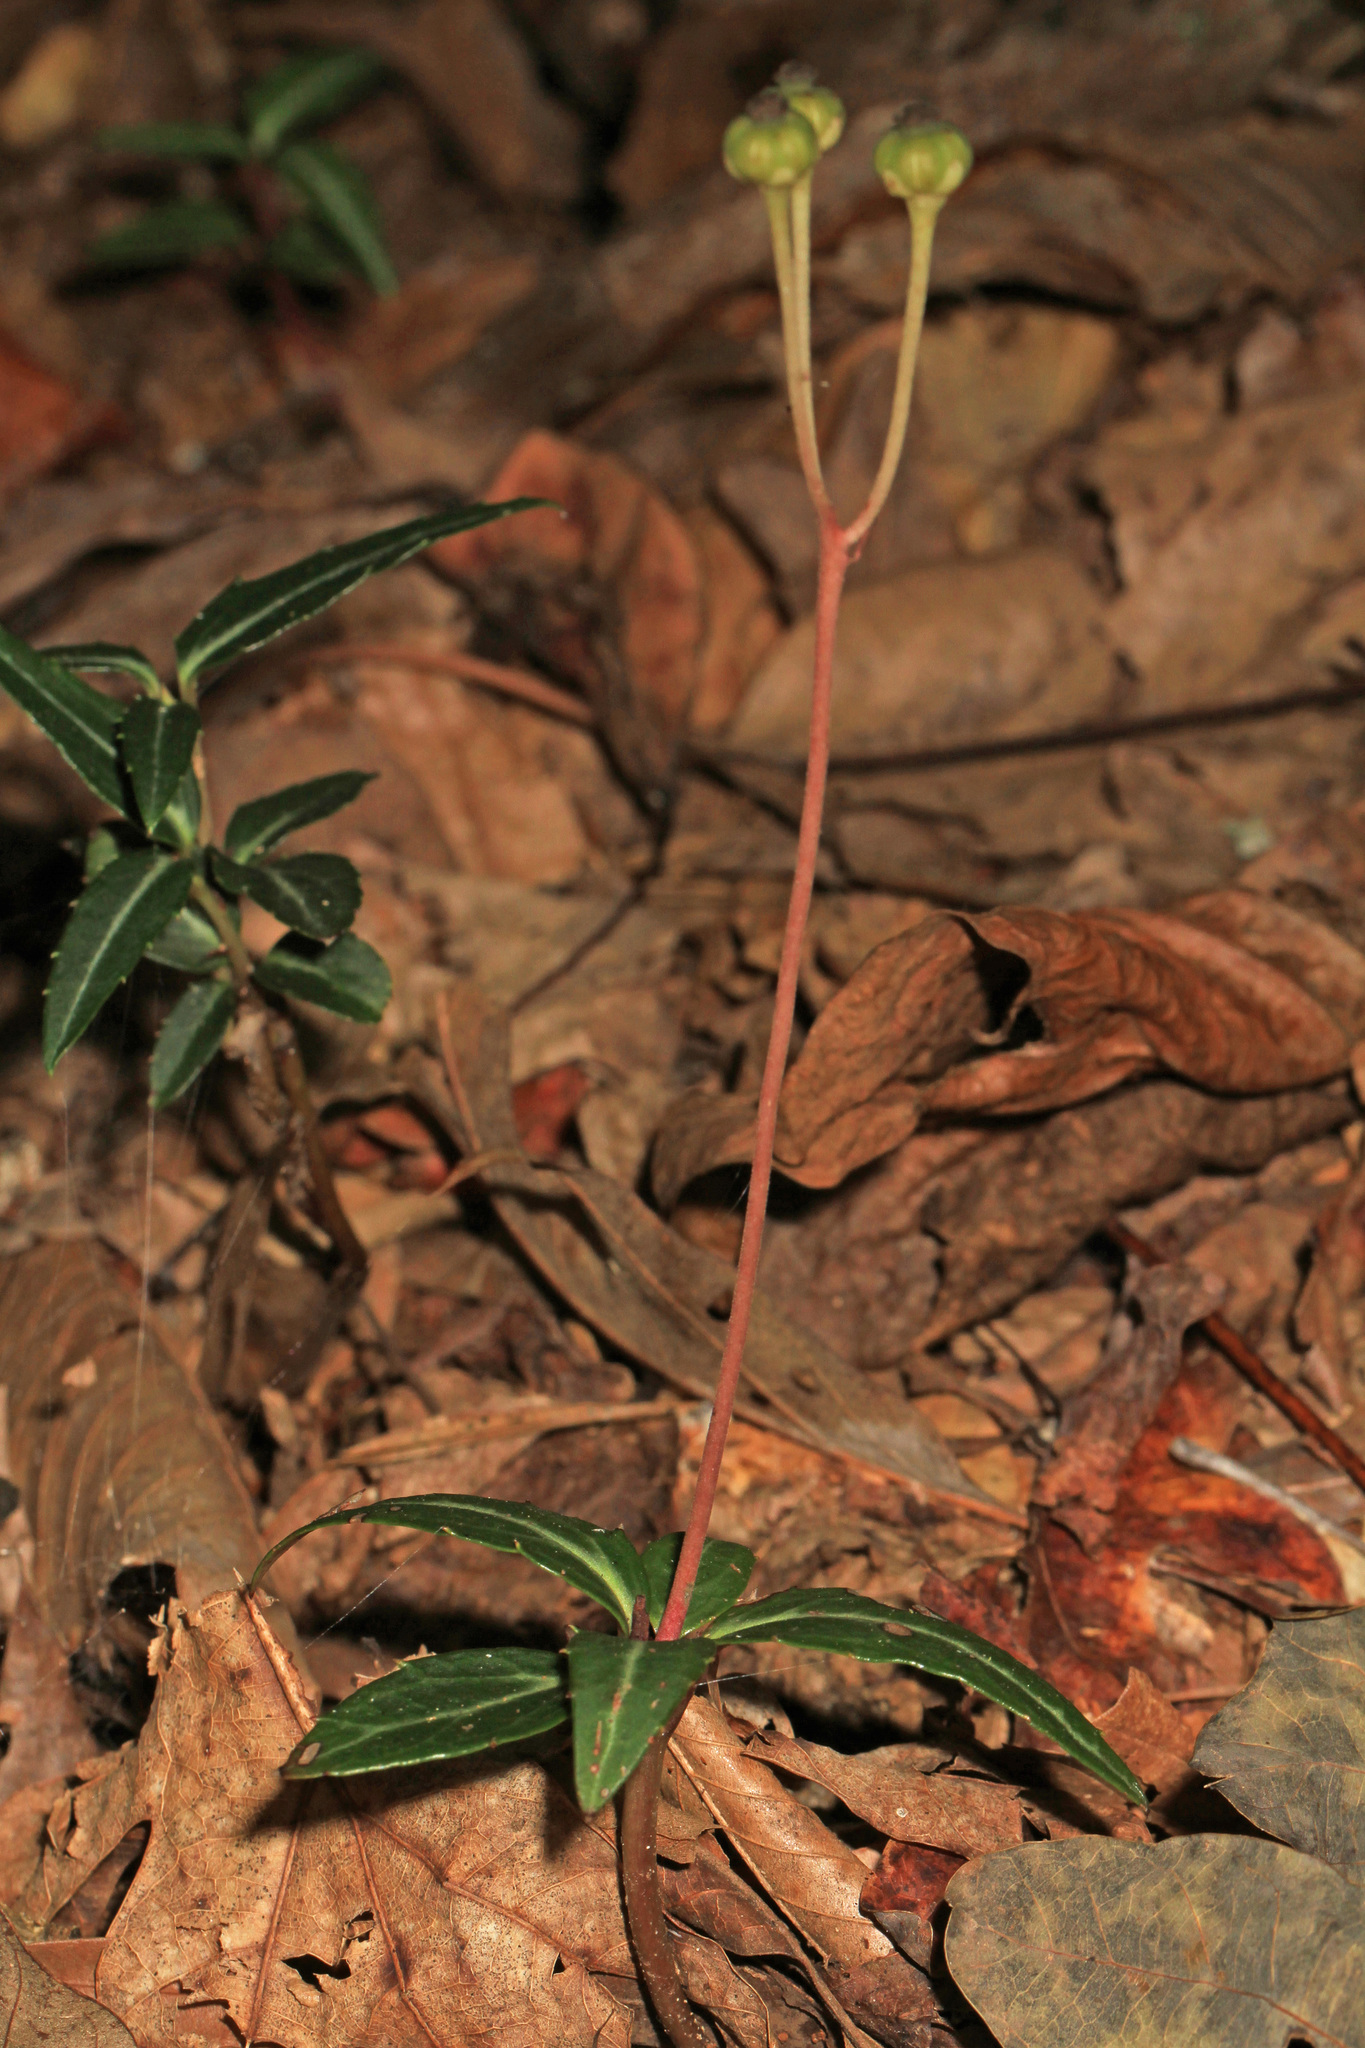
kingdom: Plantae
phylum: Tracheophyta
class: Magnoliopsida
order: Ericales
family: Ericaceae
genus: Chimaphila
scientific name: Chimaphila maculata
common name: Spotted pipsissewa
